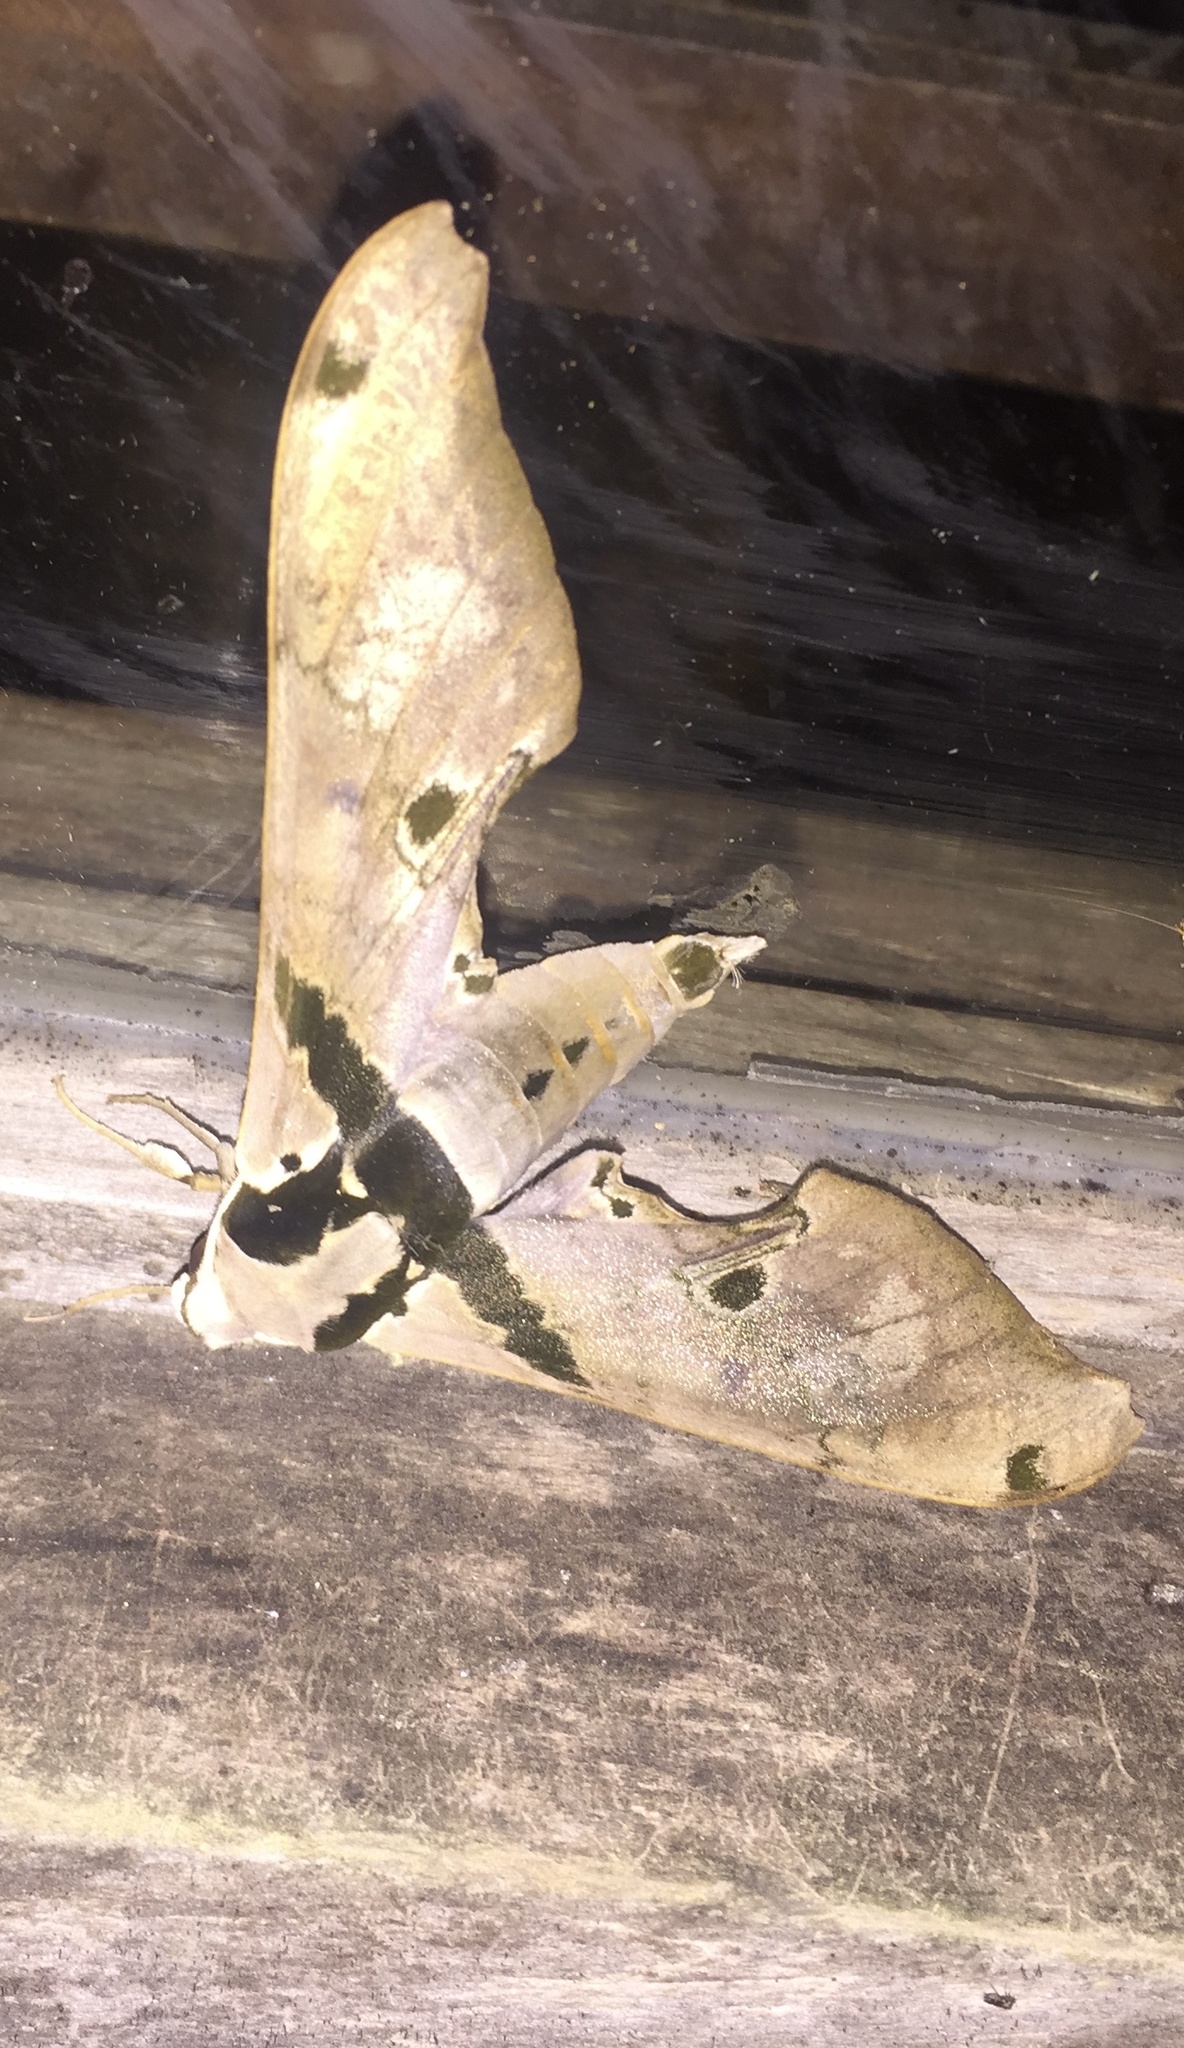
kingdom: Animalia
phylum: Arthropoda
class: Insecta
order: Lepidoptera
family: Sphingidae
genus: Adhemarius
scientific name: Adhemarius gannascus
